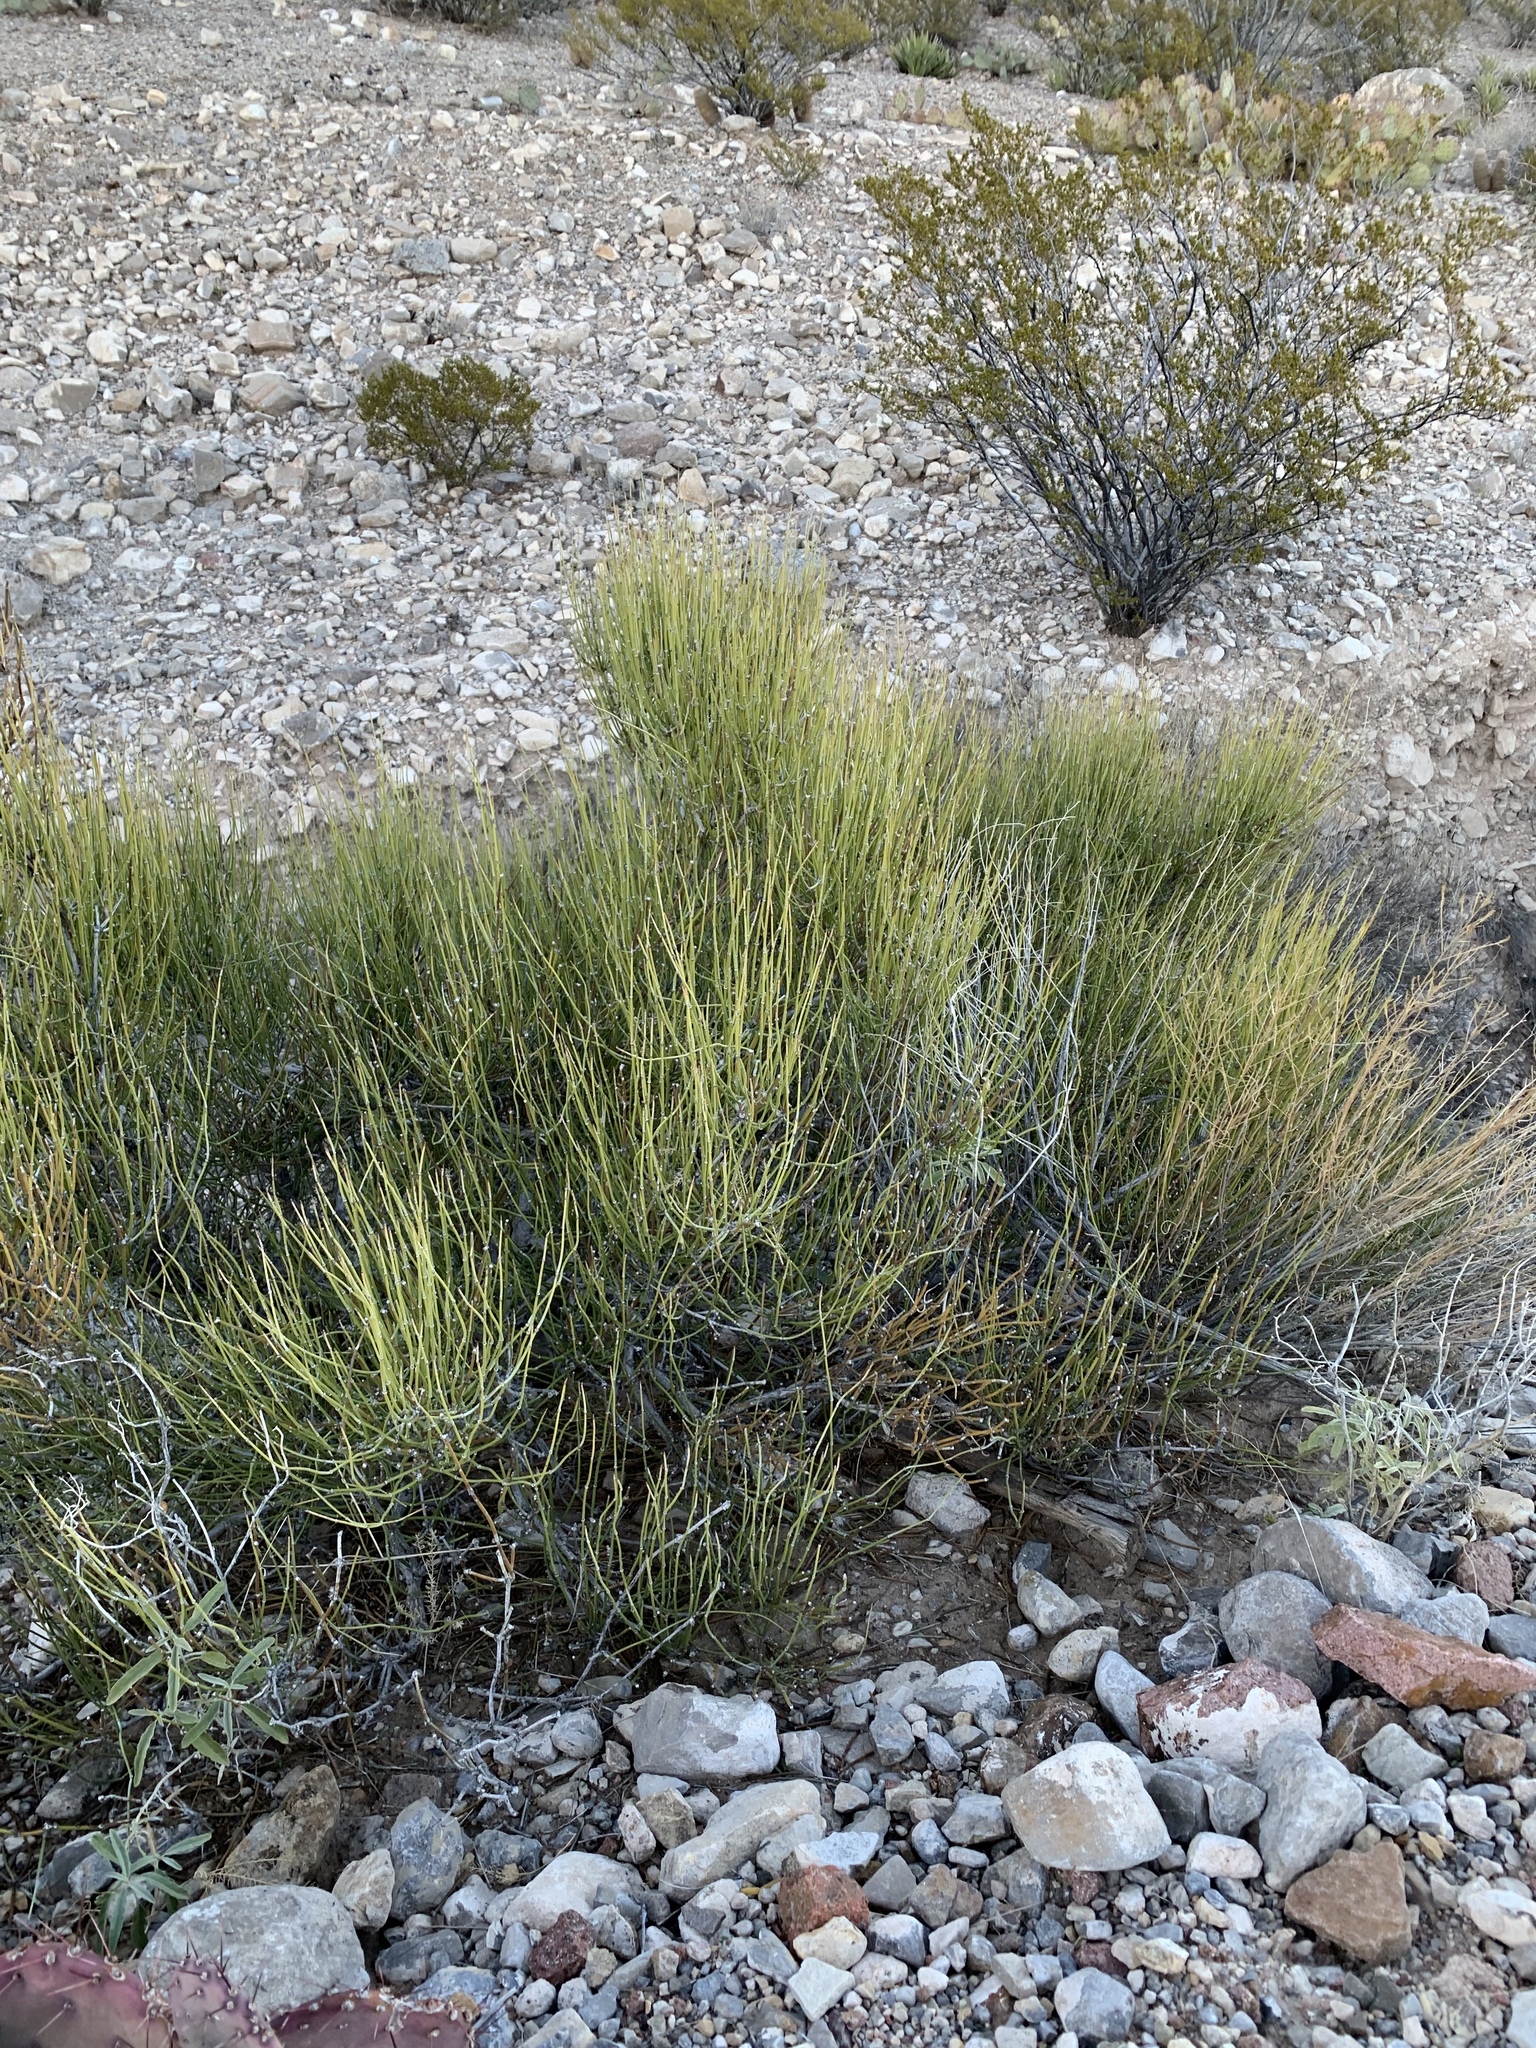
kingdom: Plantae
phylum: Tracheophyta
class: Gnetopsida
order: Ephedrales
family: Ephedraceae
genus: Ephedra
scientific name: Ephedra aspera
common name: Boundary ephedra
